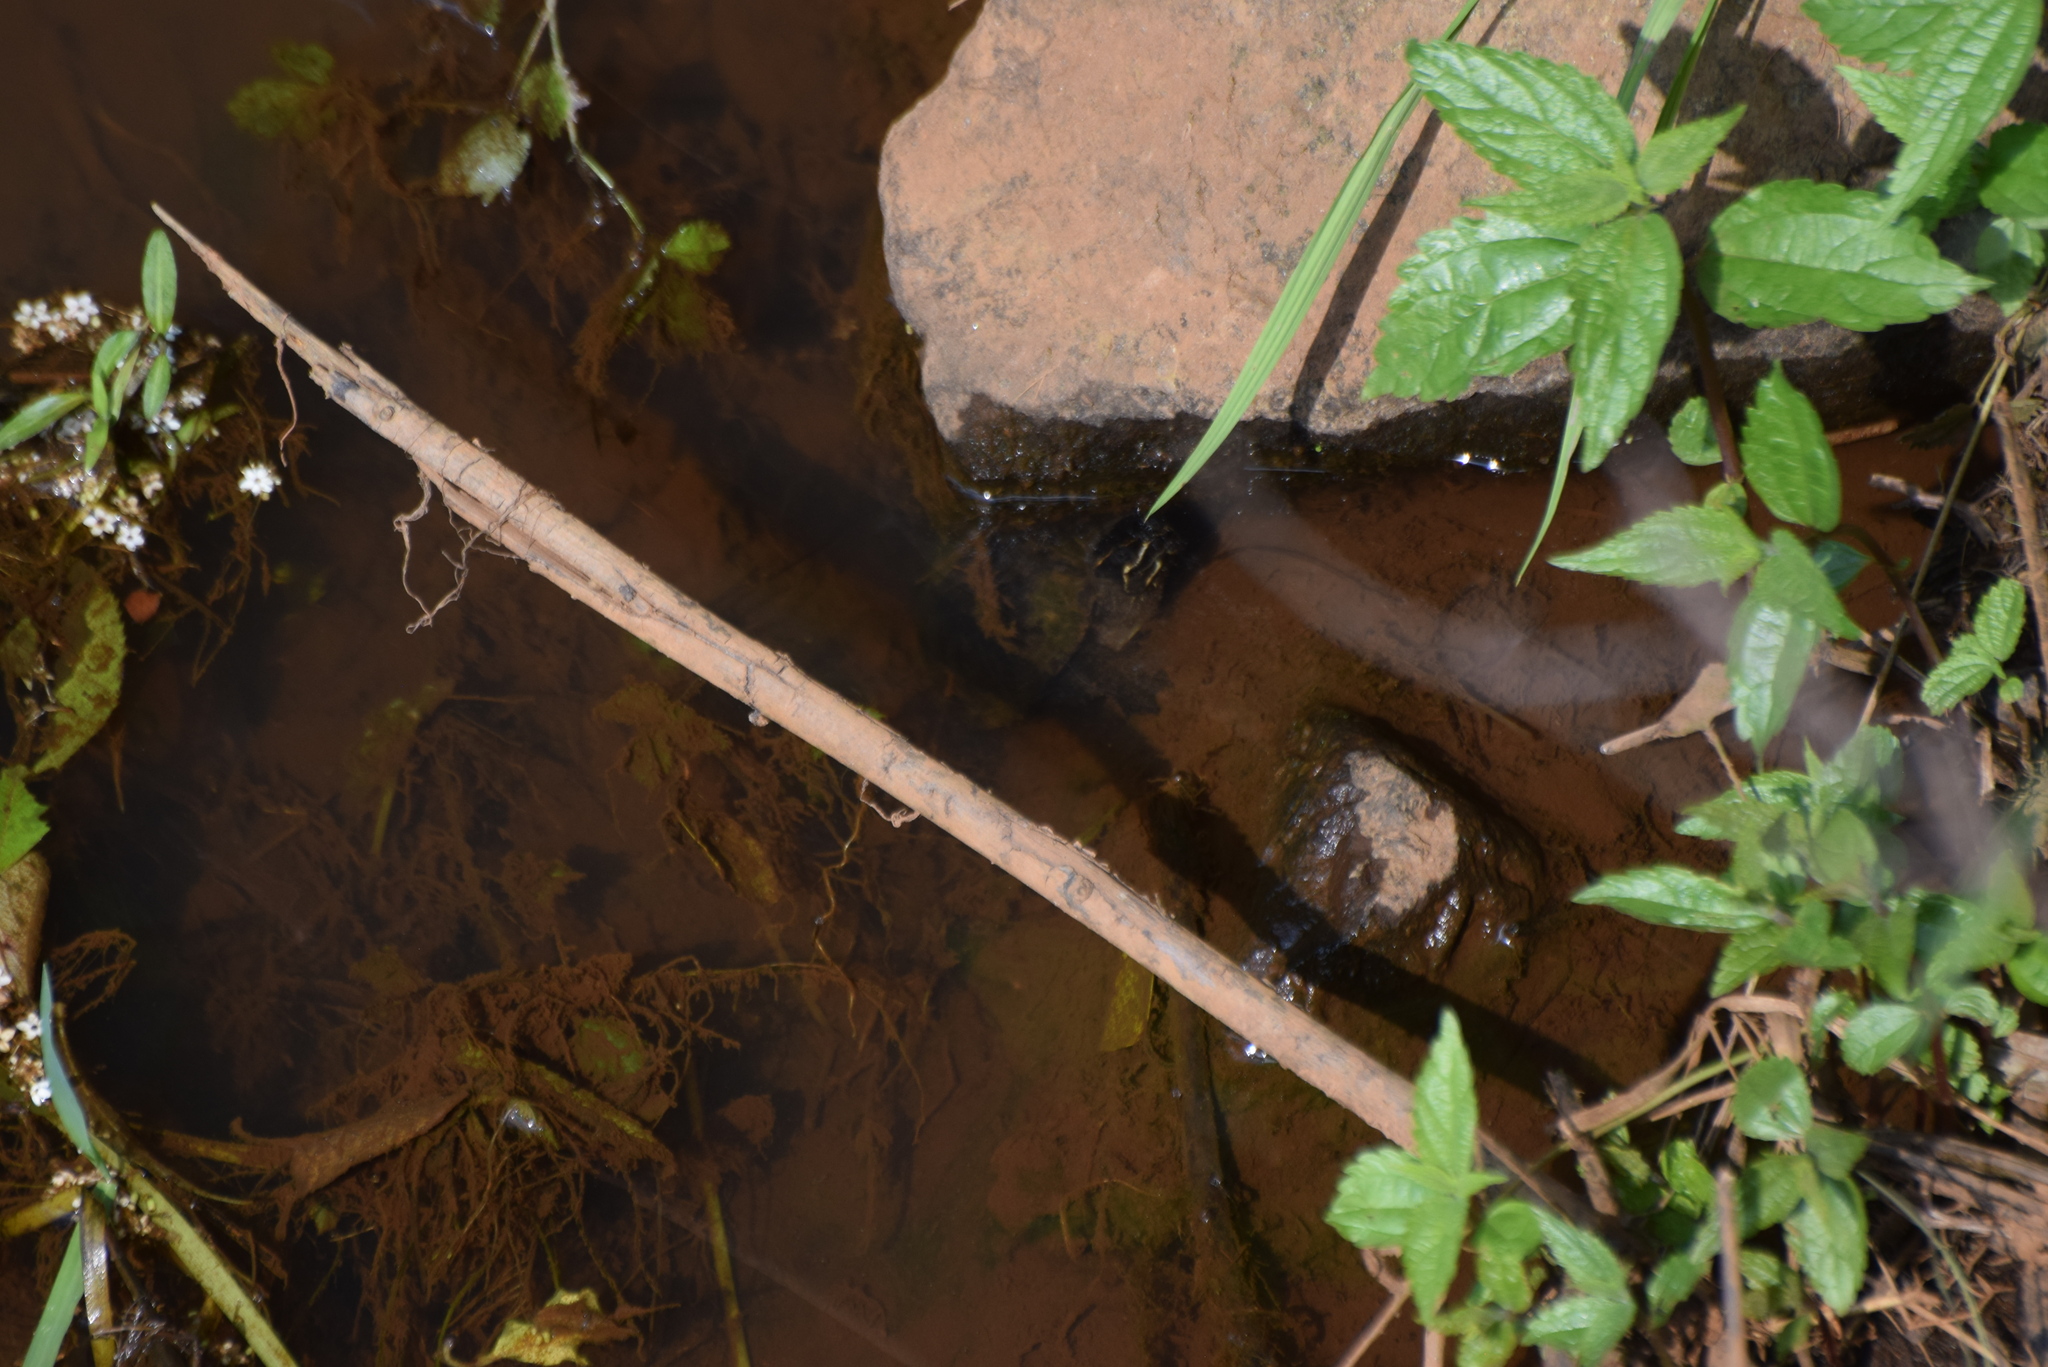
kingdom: Animalia
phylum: Chordata
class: Testudines
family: Kinosternidae
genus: Sternotherus
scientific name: Sternotherus odoratus
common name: Common musk turtle
